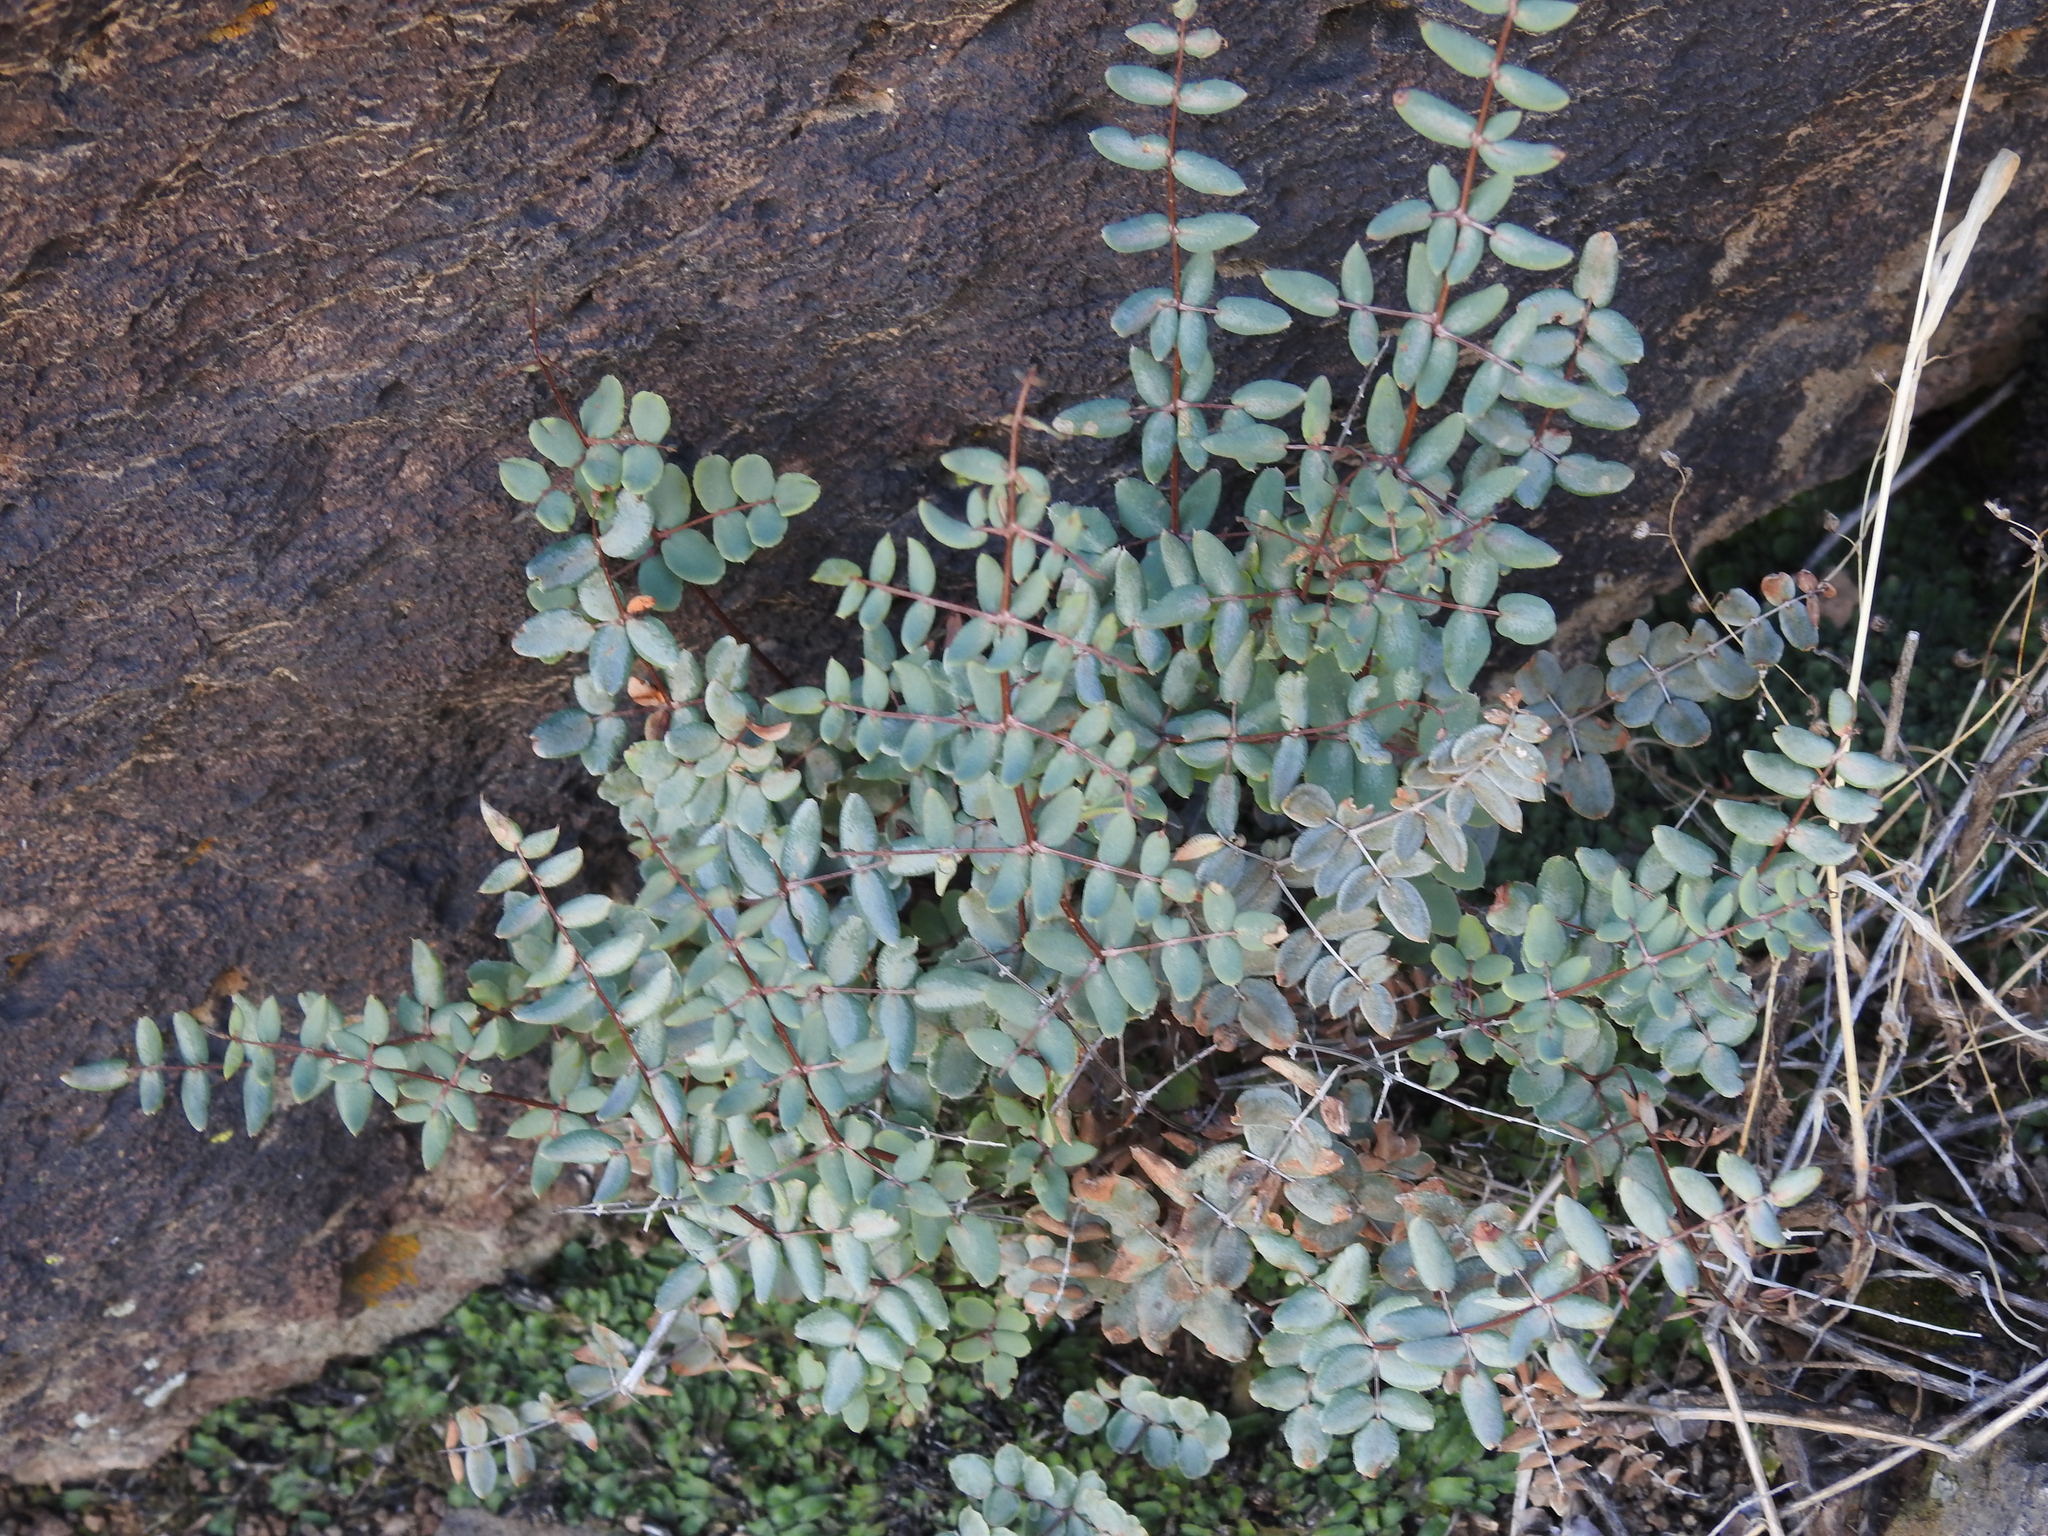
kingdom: Plantae
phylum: Tracheophyta
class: Polypodiopsida
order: Polypodiales
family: Pteridaceae
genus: Pellaea
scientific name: Pellaea truncata
